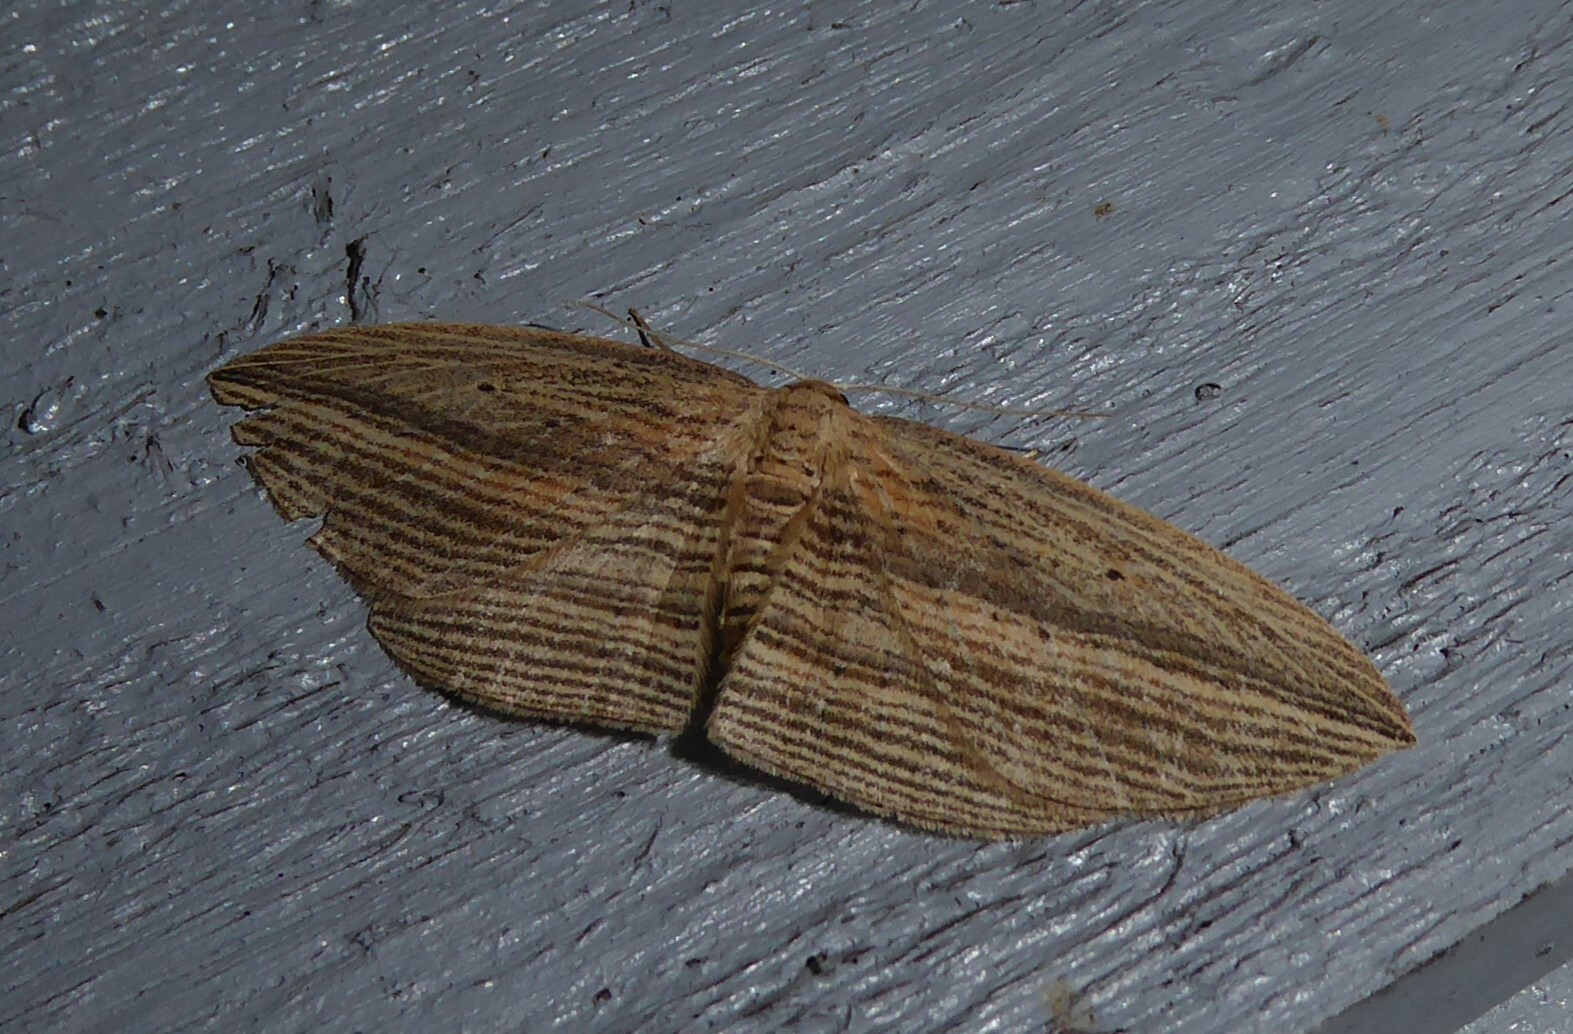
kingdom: Animalia
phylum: Arthropoda
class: Insecta
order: Lepidoptera
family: Geometridae
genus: Epiphryne
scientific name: Epiphryne verriculata
